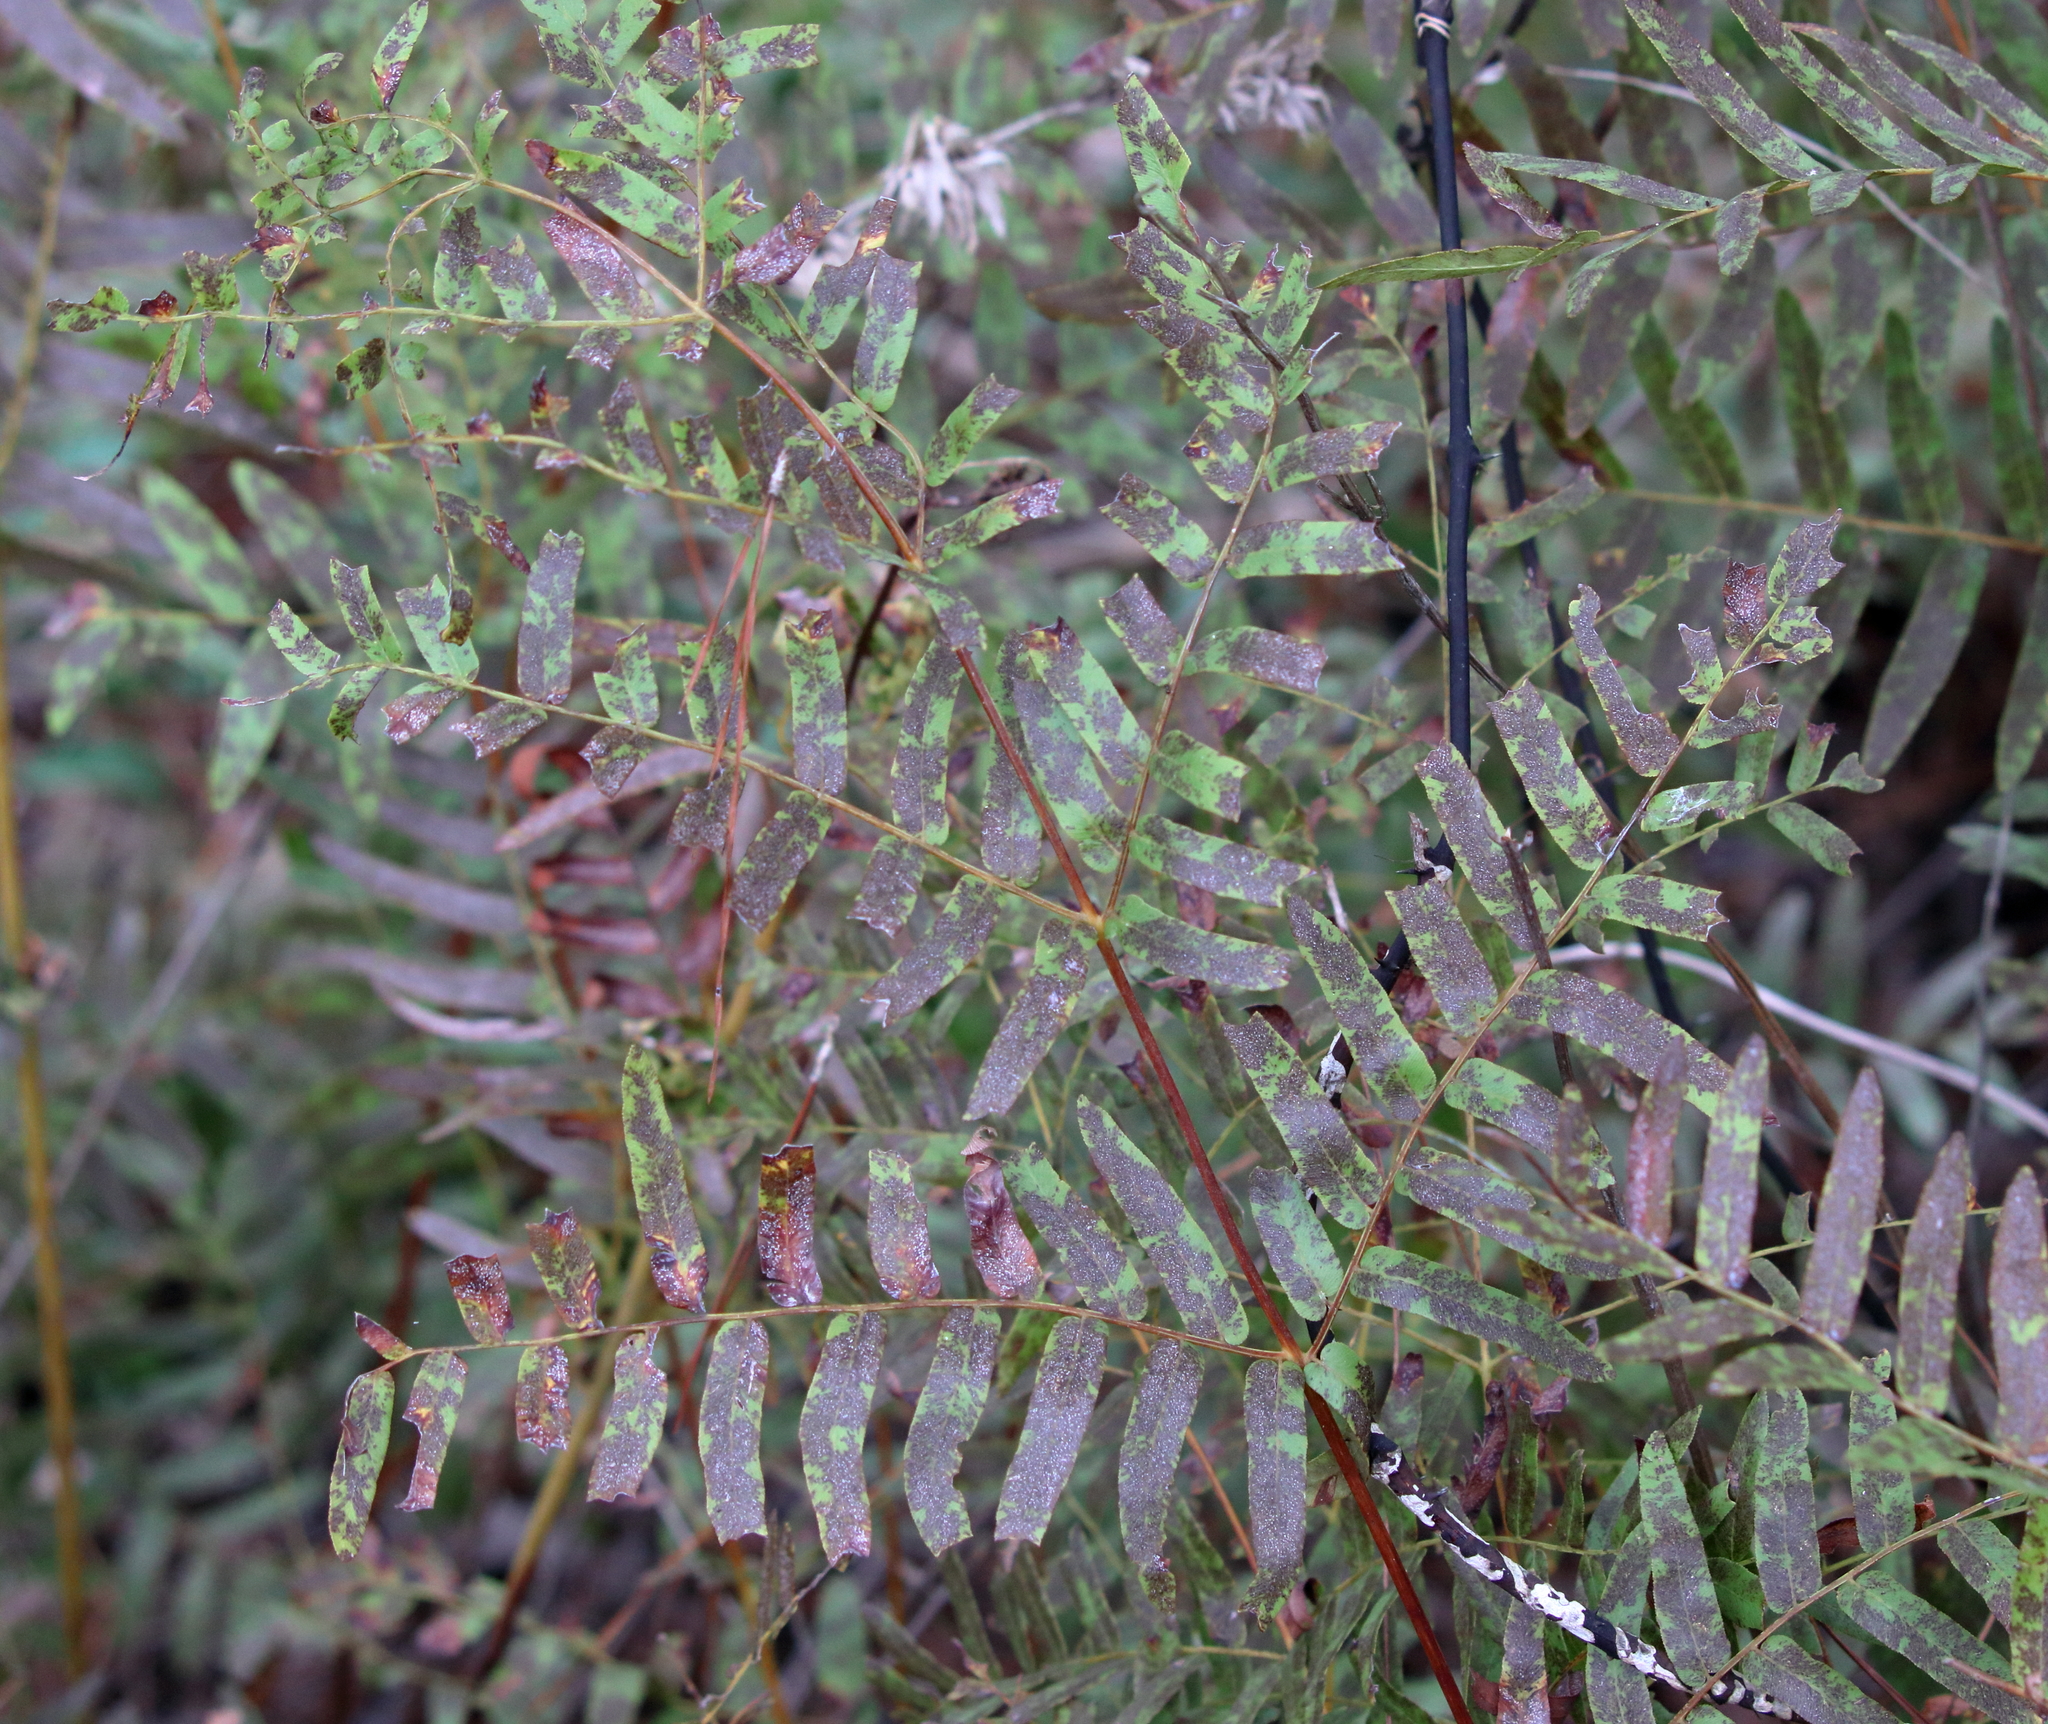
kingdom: Plantae
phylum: Tracheophyta
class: Polypodiopsida
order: Osmundales
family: Osmundaceae
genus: Osmunda
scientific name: Osmunda spectabilis
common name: American royal fern
